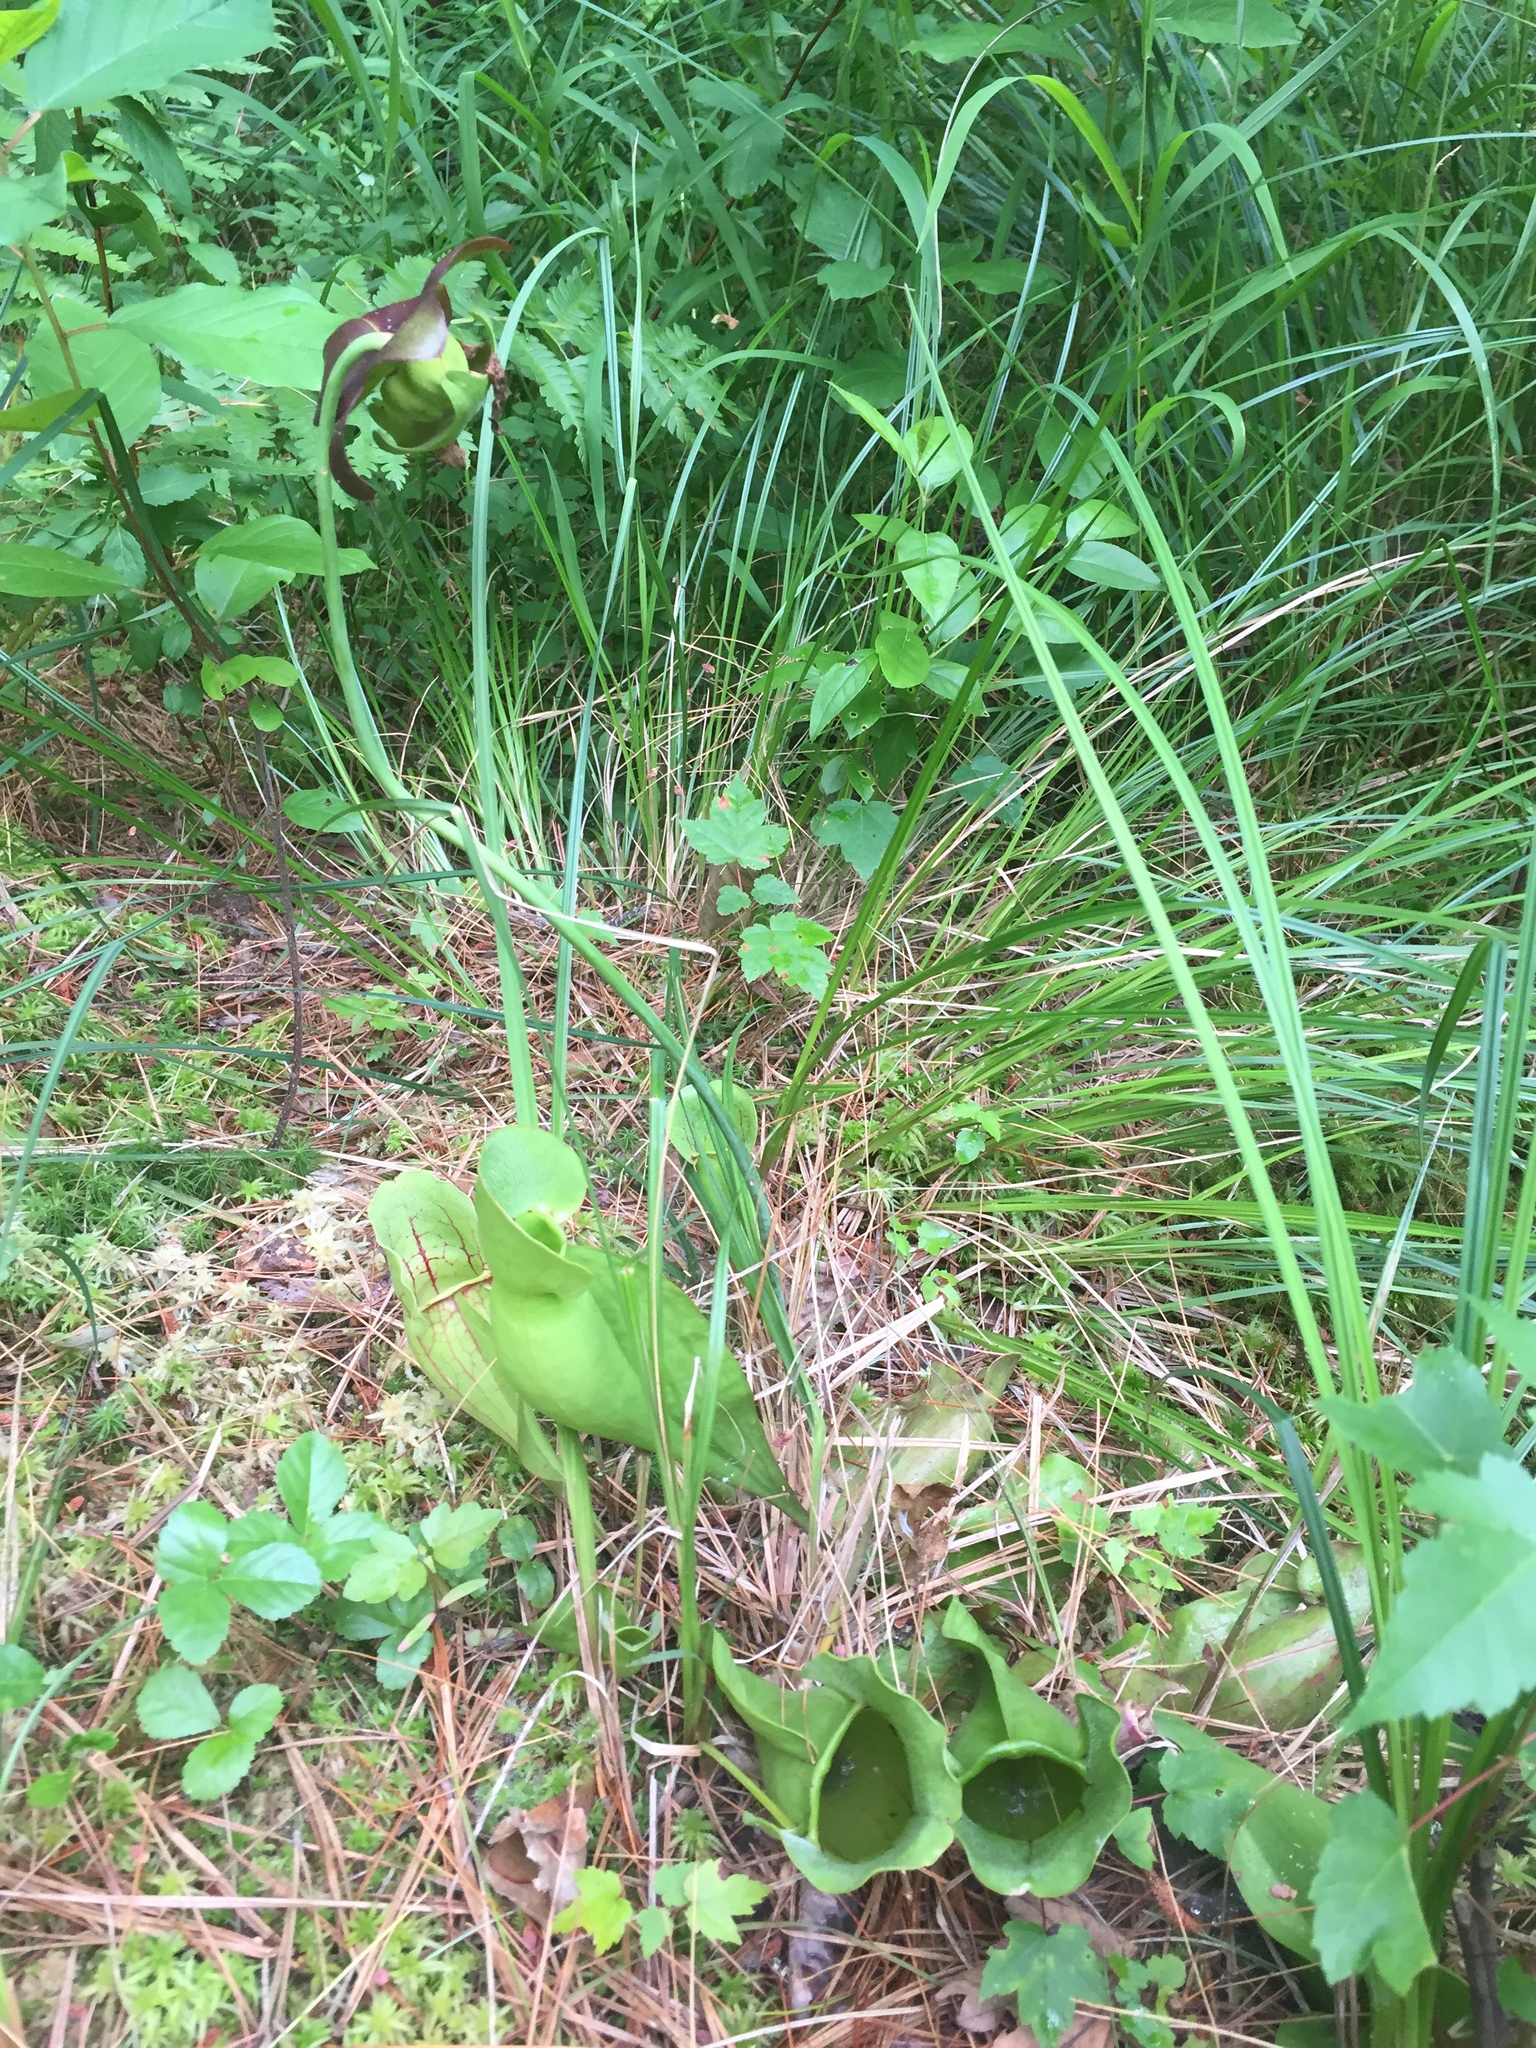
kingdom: Plantae
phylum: Tracheophyta
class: Magnoliopsida
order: Ericales
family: Sarraceniaceae
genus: Sarracenia
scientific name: Sarracenia purpurea
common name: Pitcherplant
